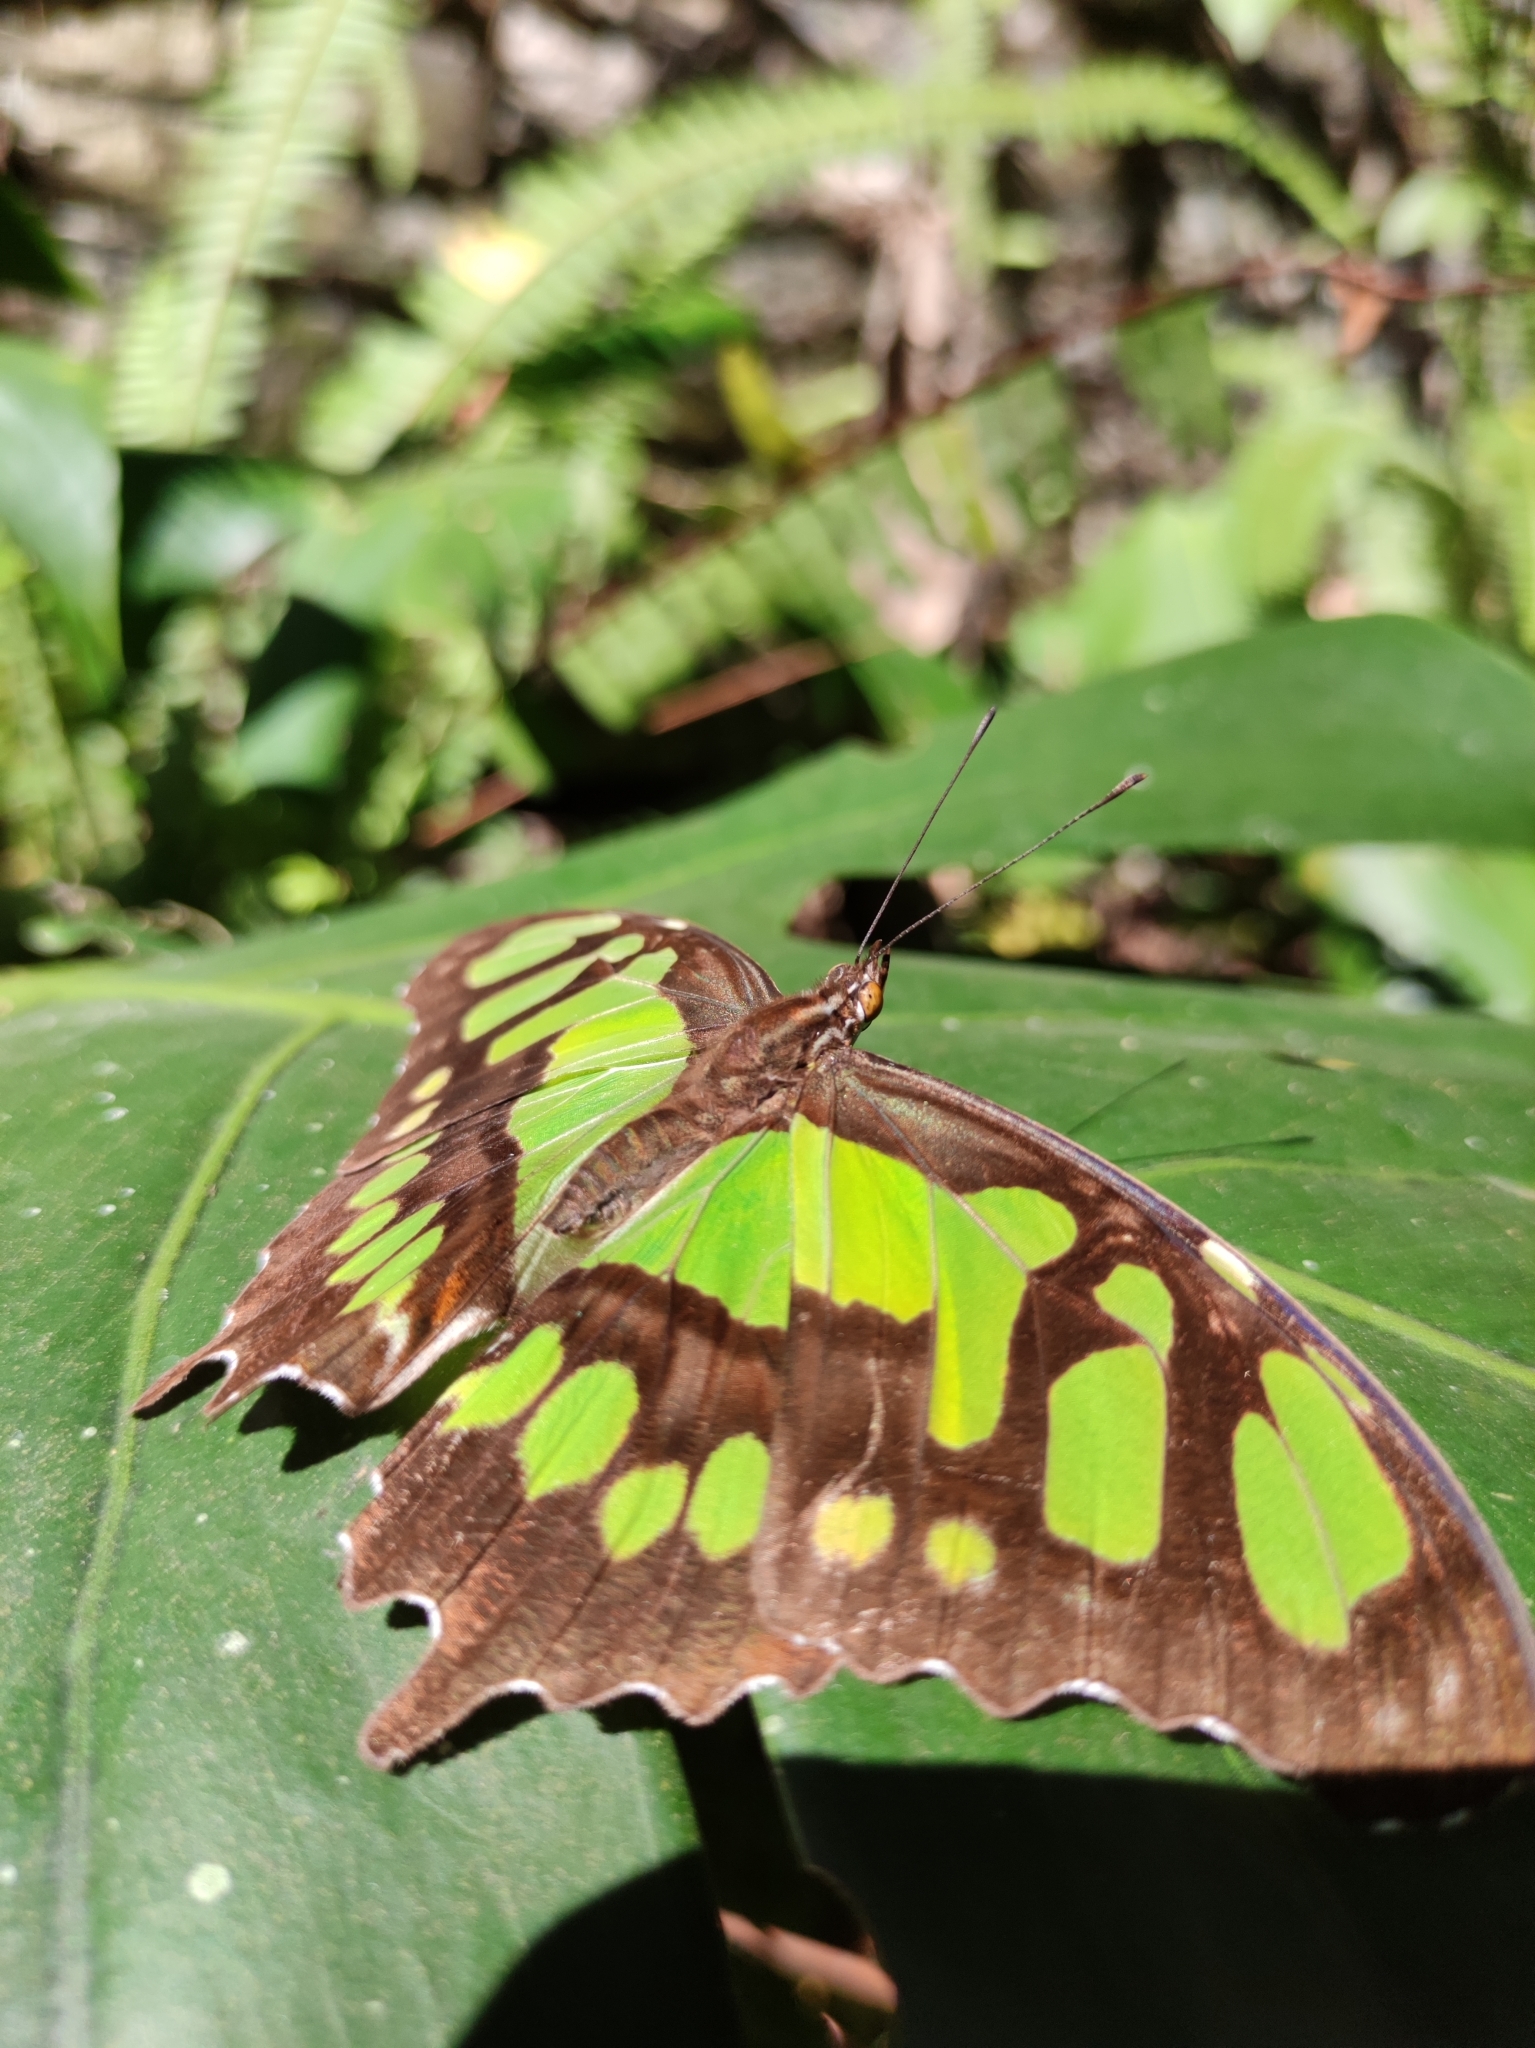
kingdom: Animalia
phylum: Arthropoda
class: Insecta
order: Lepidoptera
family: Nymphalidae
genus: Siproeta
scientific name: Siproeta stelenes
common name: Malachite
